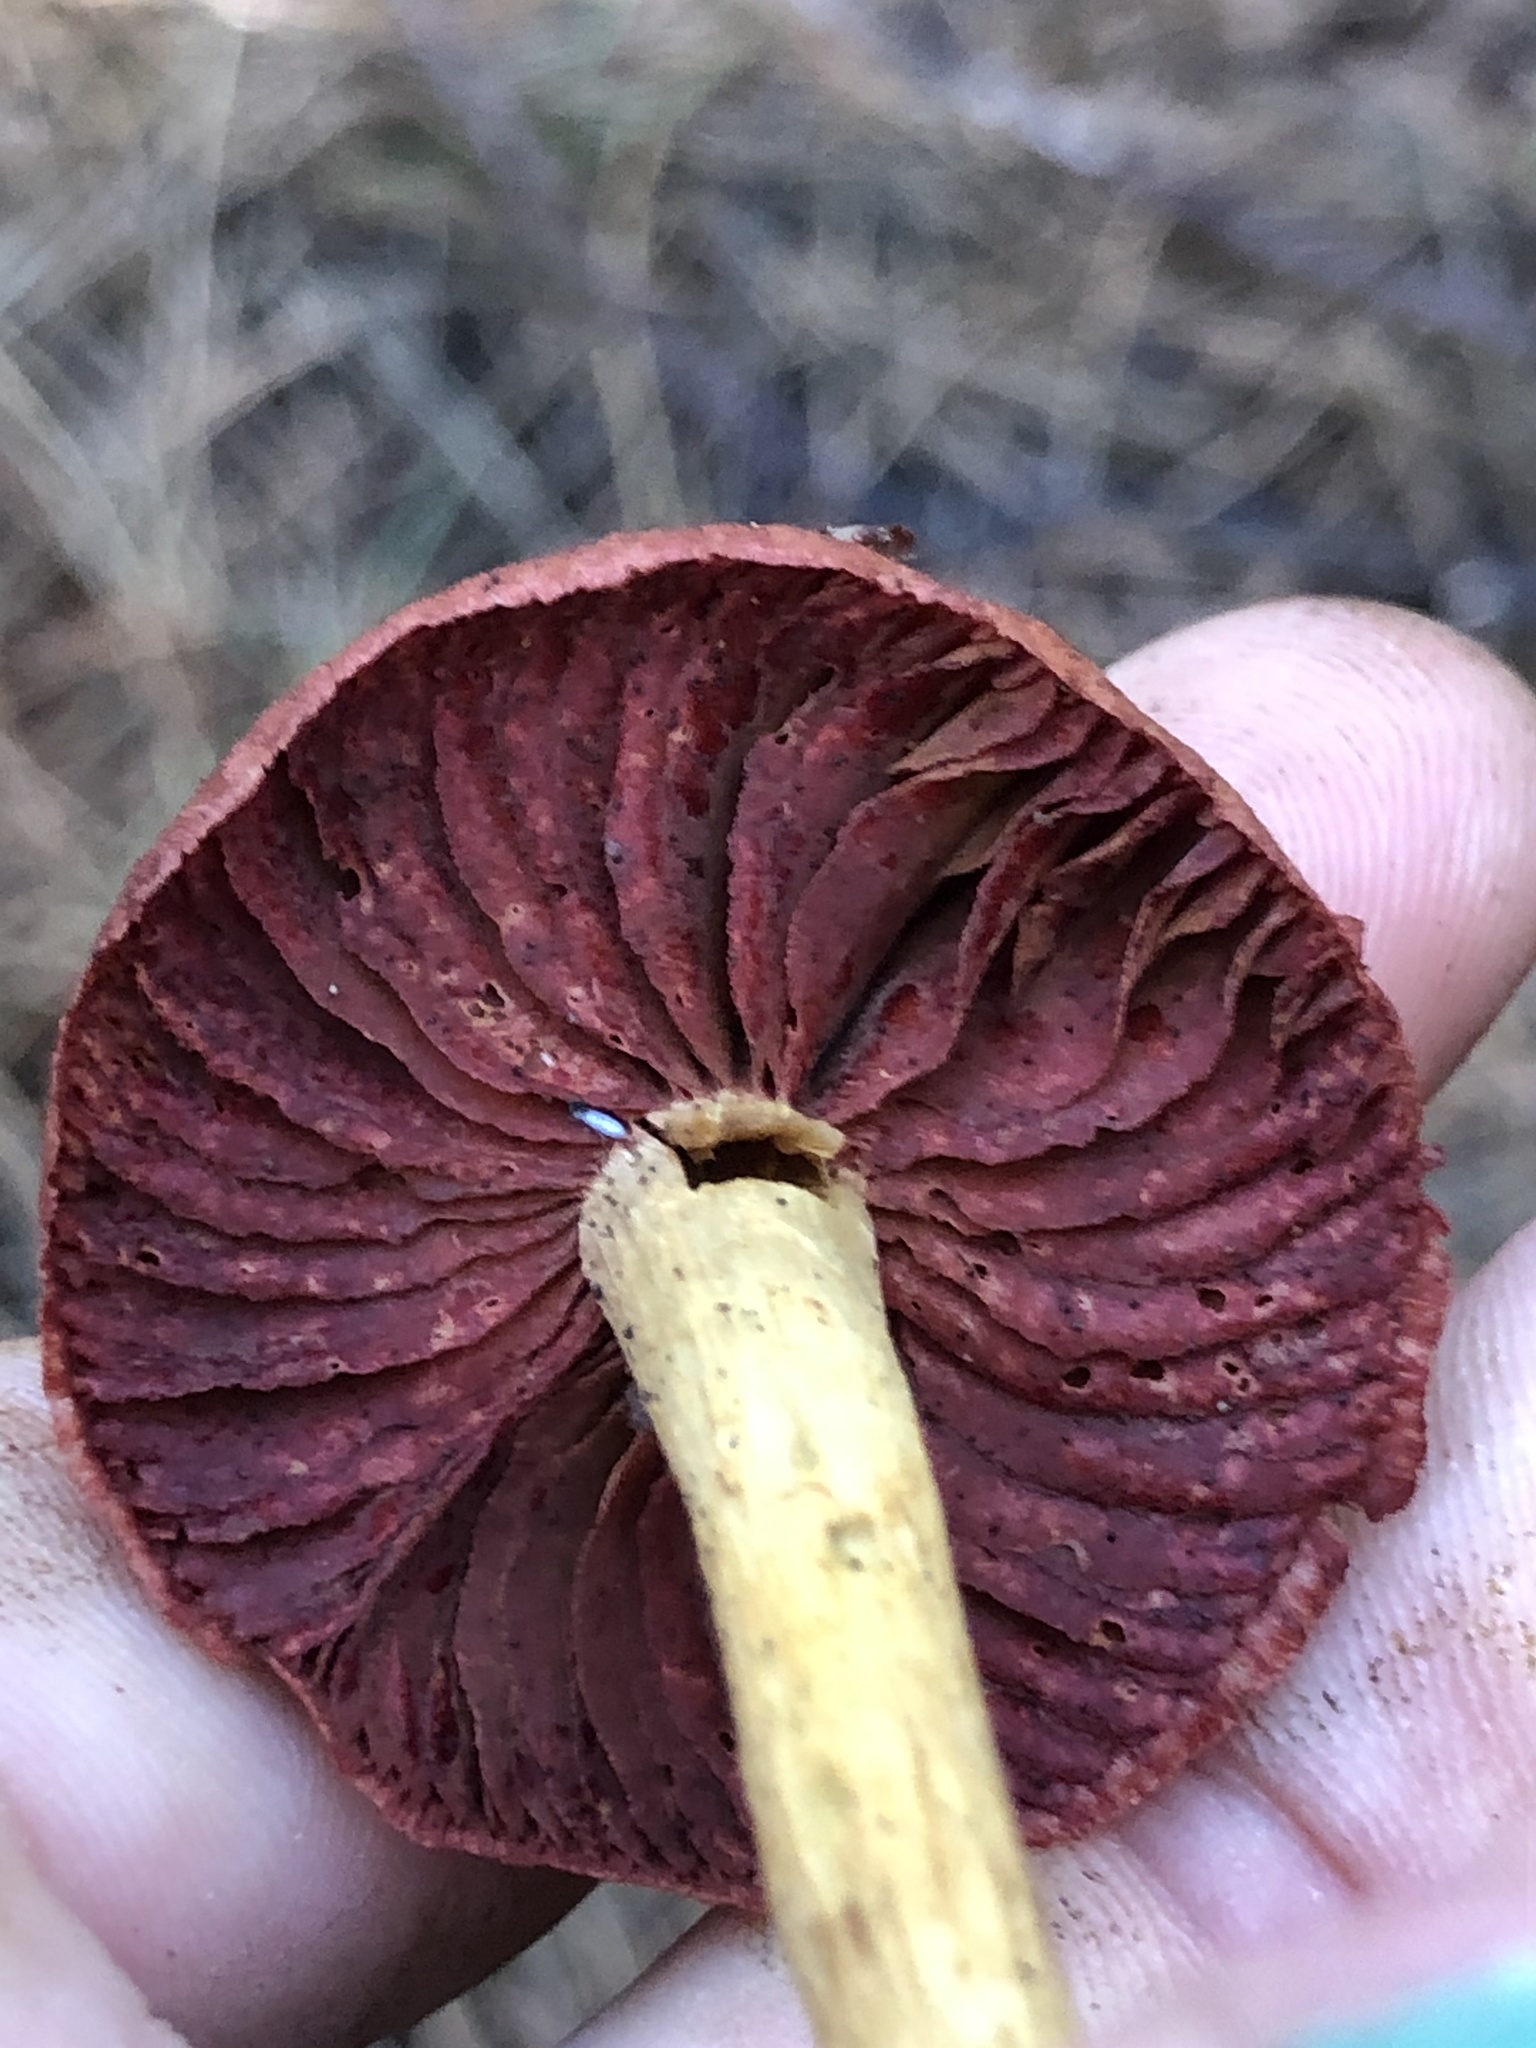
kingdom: Fungi
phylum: Basidiomycota
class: Agaricomycetes
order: Agaricales
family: Cortinariaceae
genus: Cortinarius
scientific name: Cortinarius semisanguineus
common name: Surprise webcap
